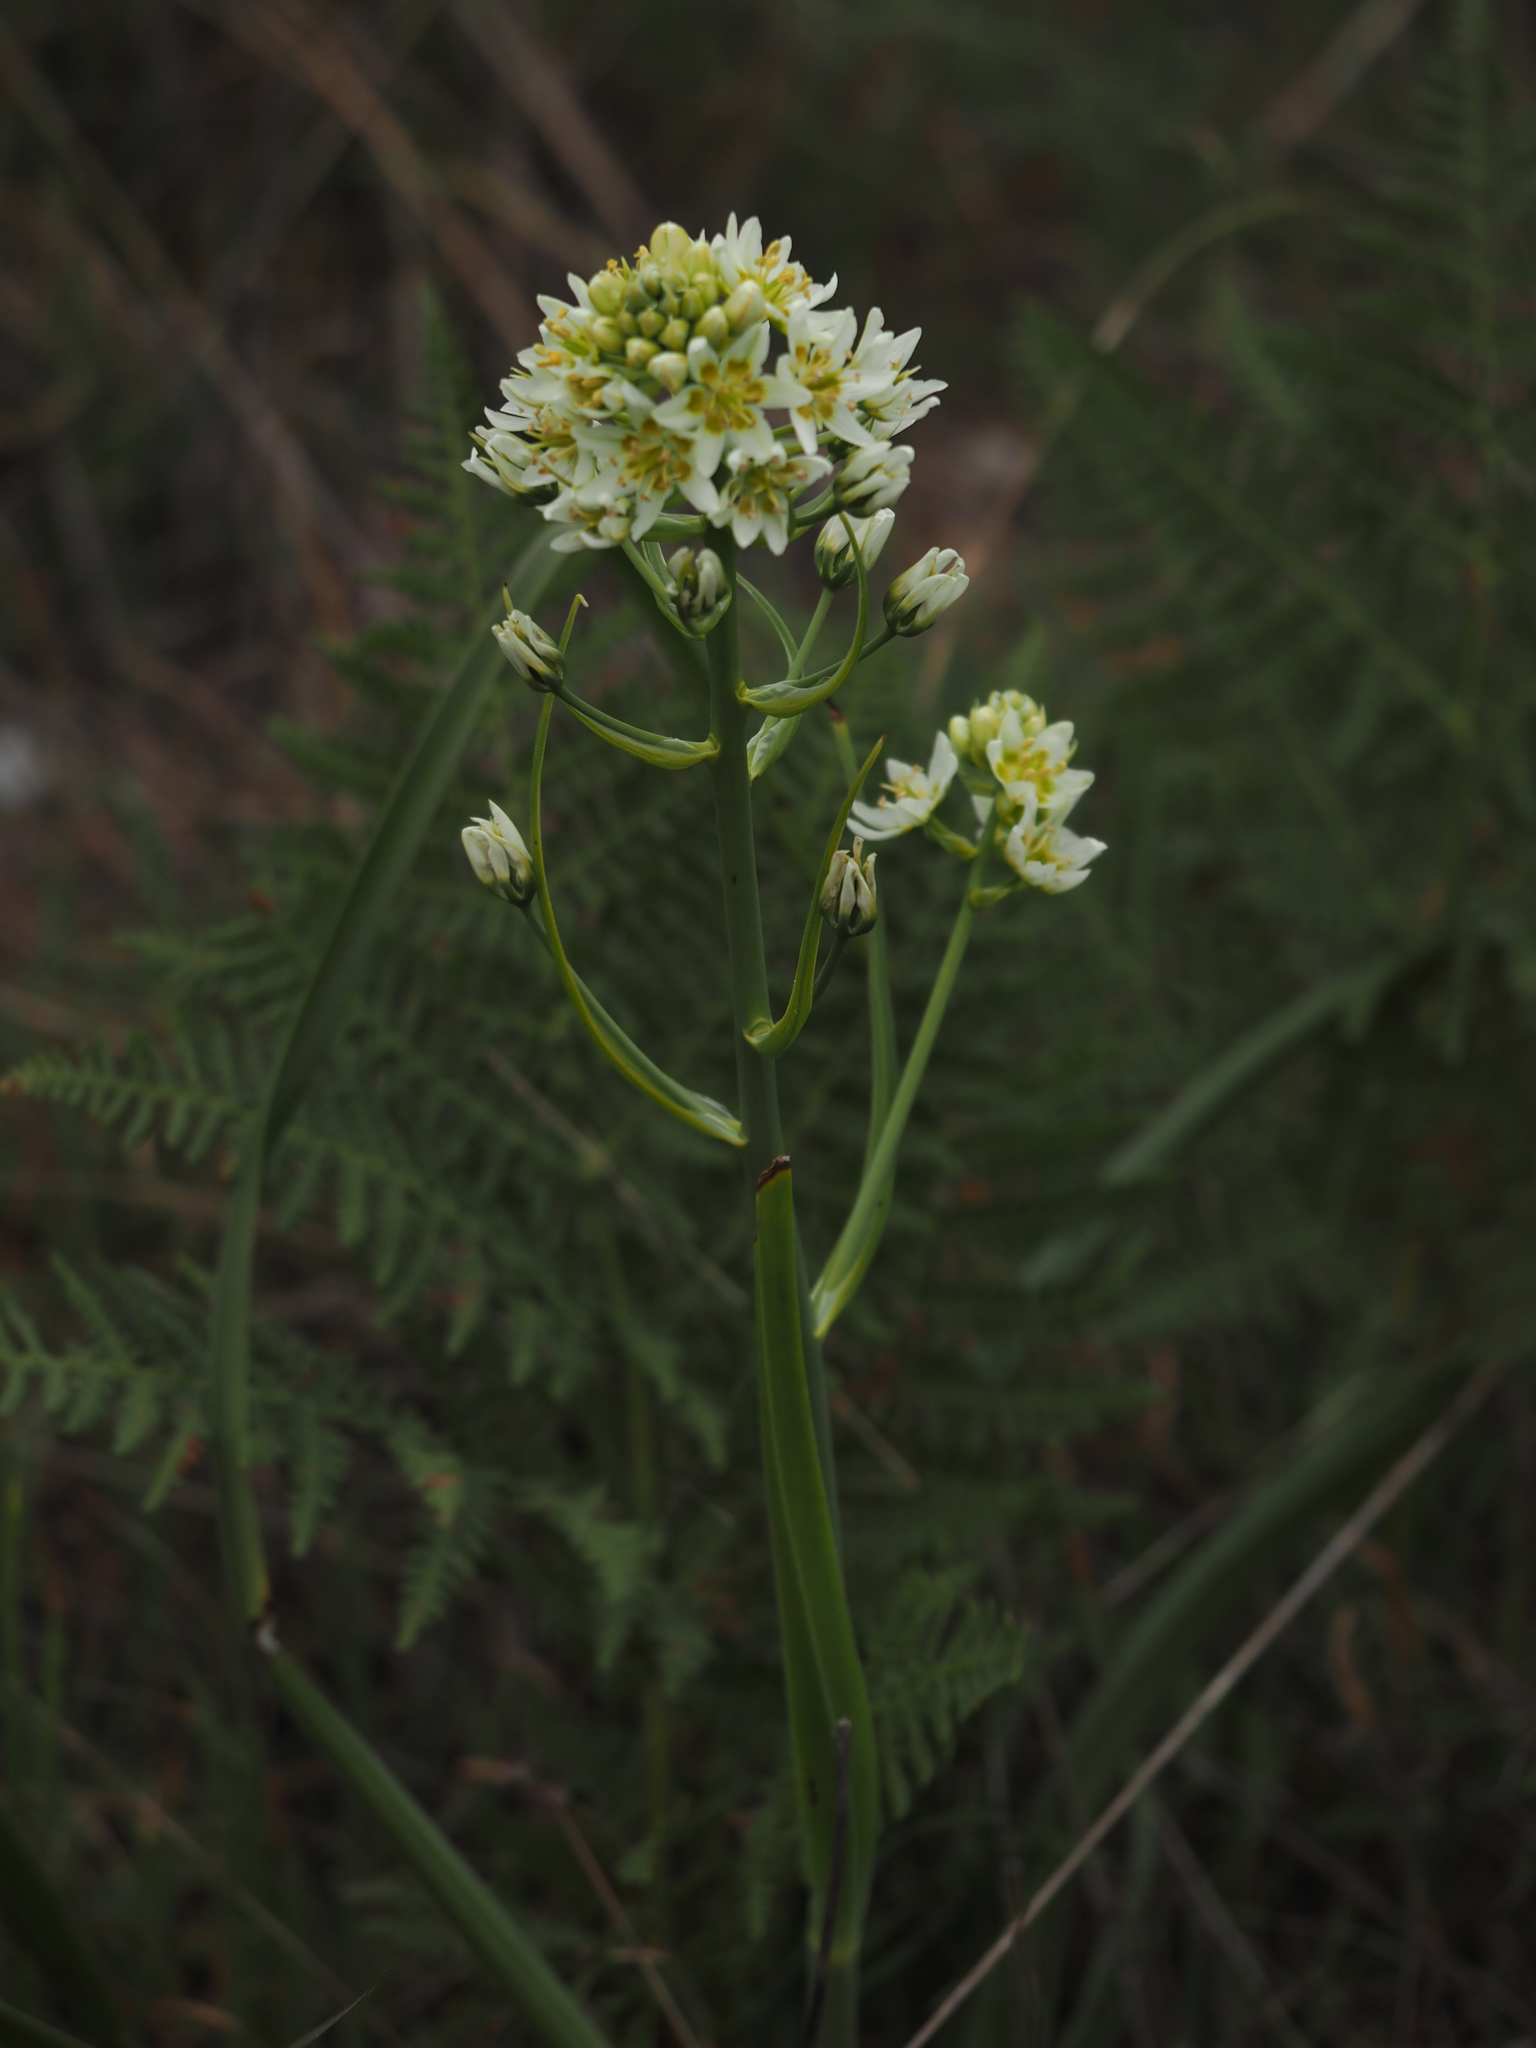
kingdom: Plantae
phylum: Tracheophyta
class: Liliopsida
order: Liliales
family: Melanthiaceae
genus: Toxicoscordion
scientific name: Toxicoscordion fremontii
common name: Fremont's death camas
